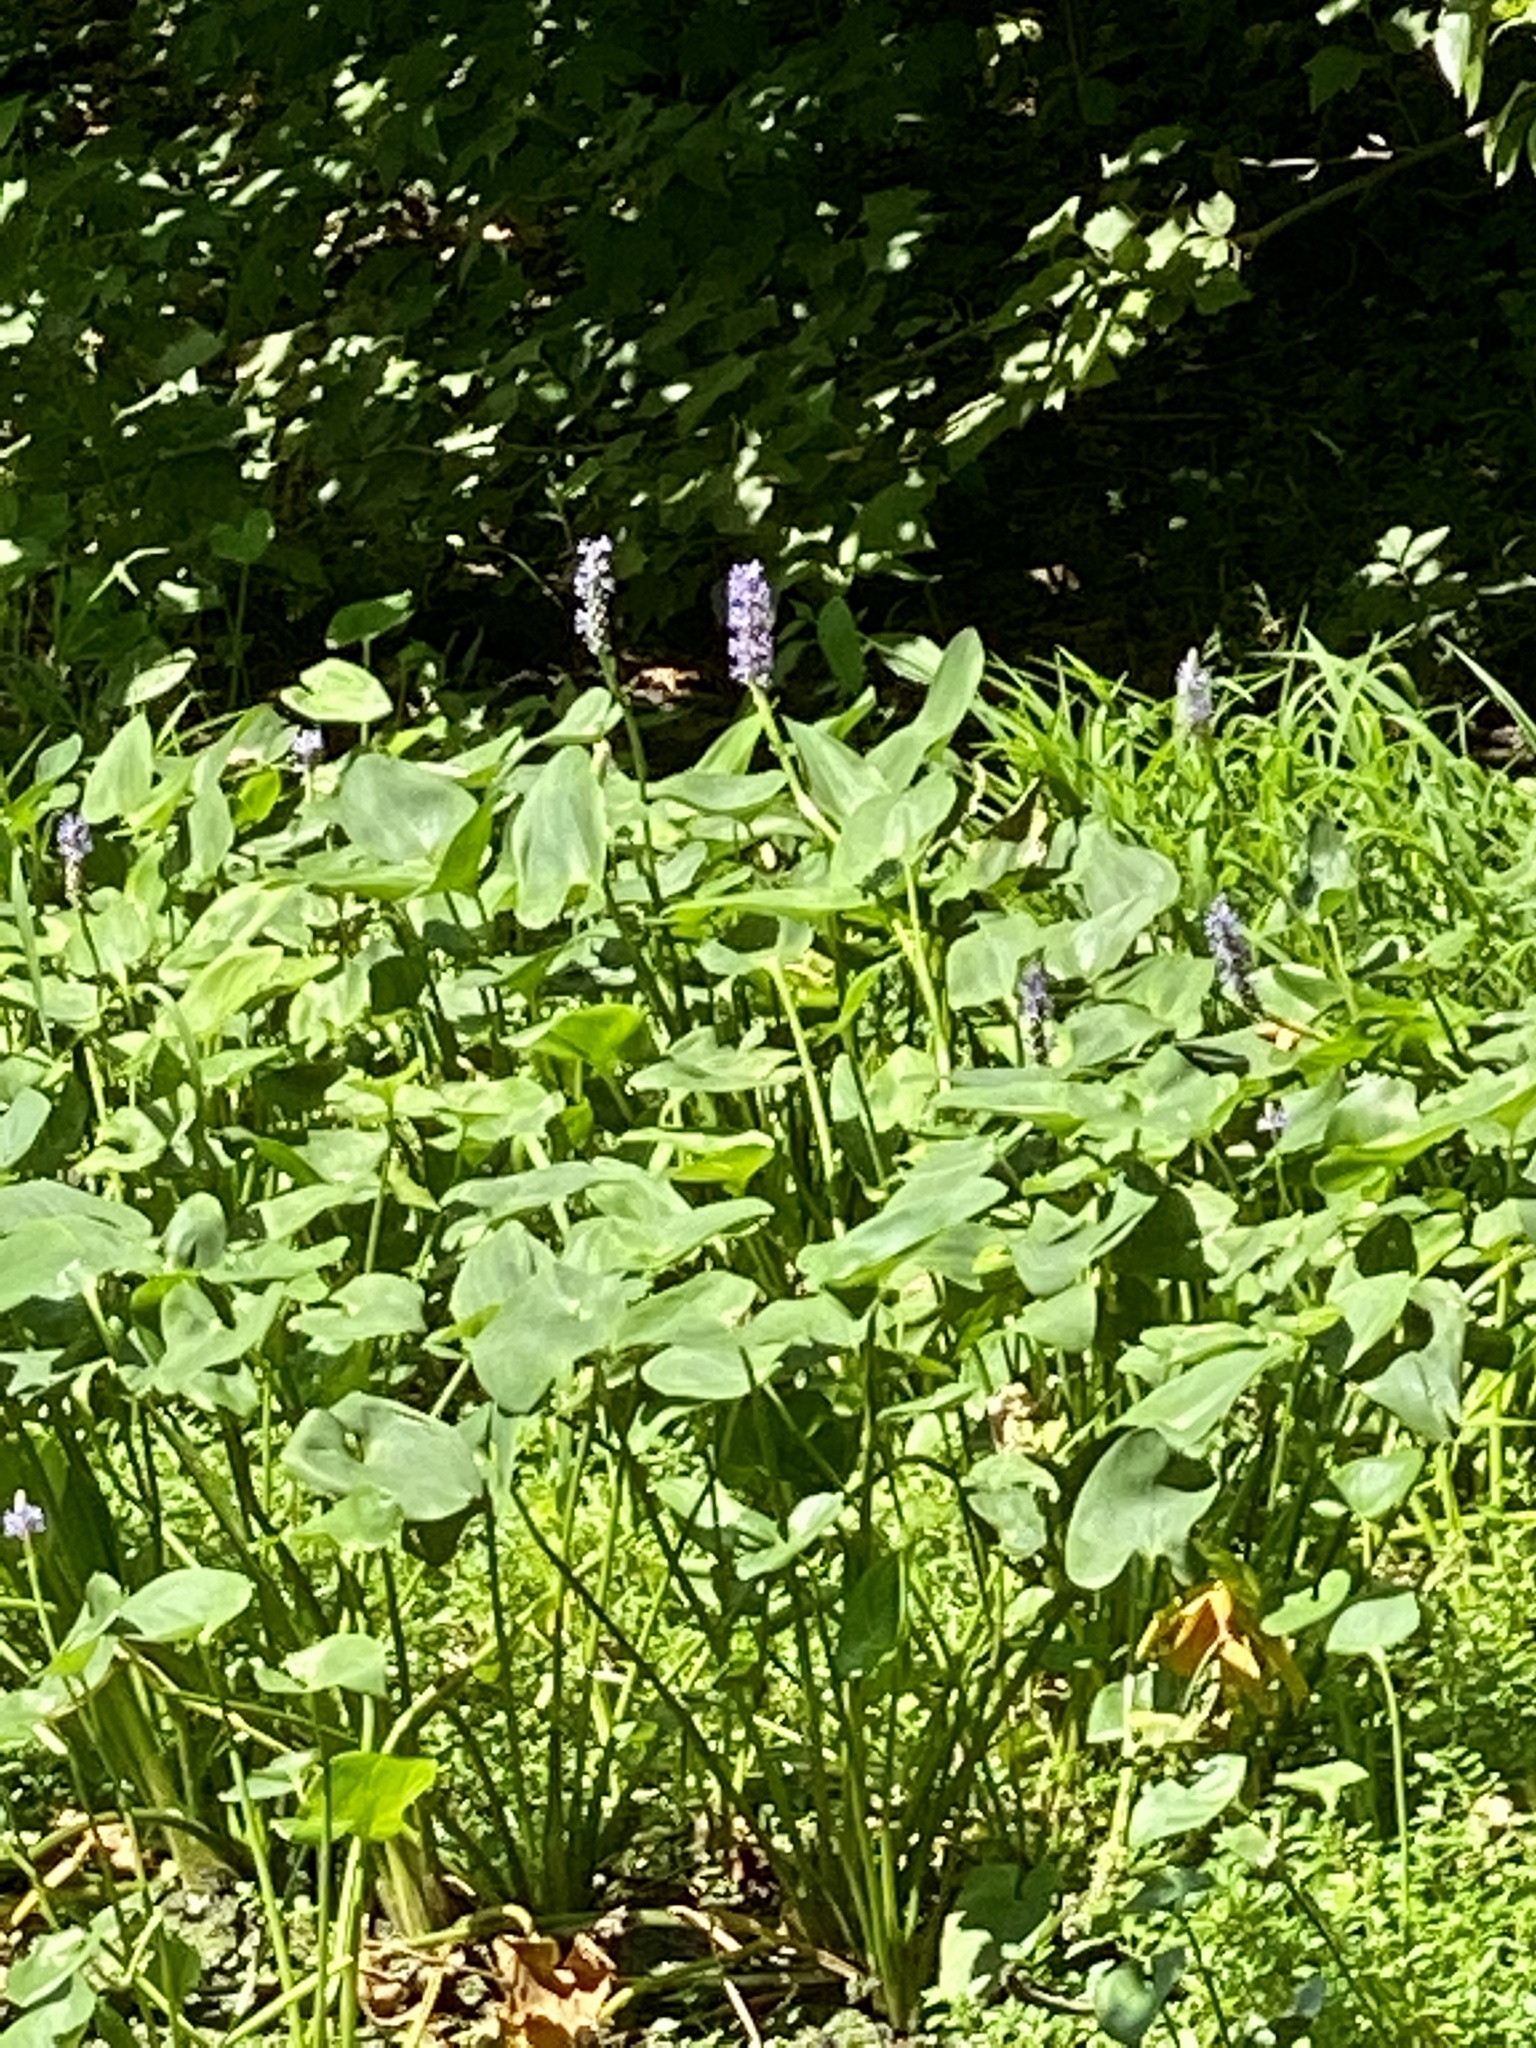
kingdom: Plantae
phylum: Tracheophyta
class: Liliopsida
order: Commelinales
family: Pontederiaceae
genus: Pontederia
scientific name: Pontederia cordata
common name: Pickerelweed
